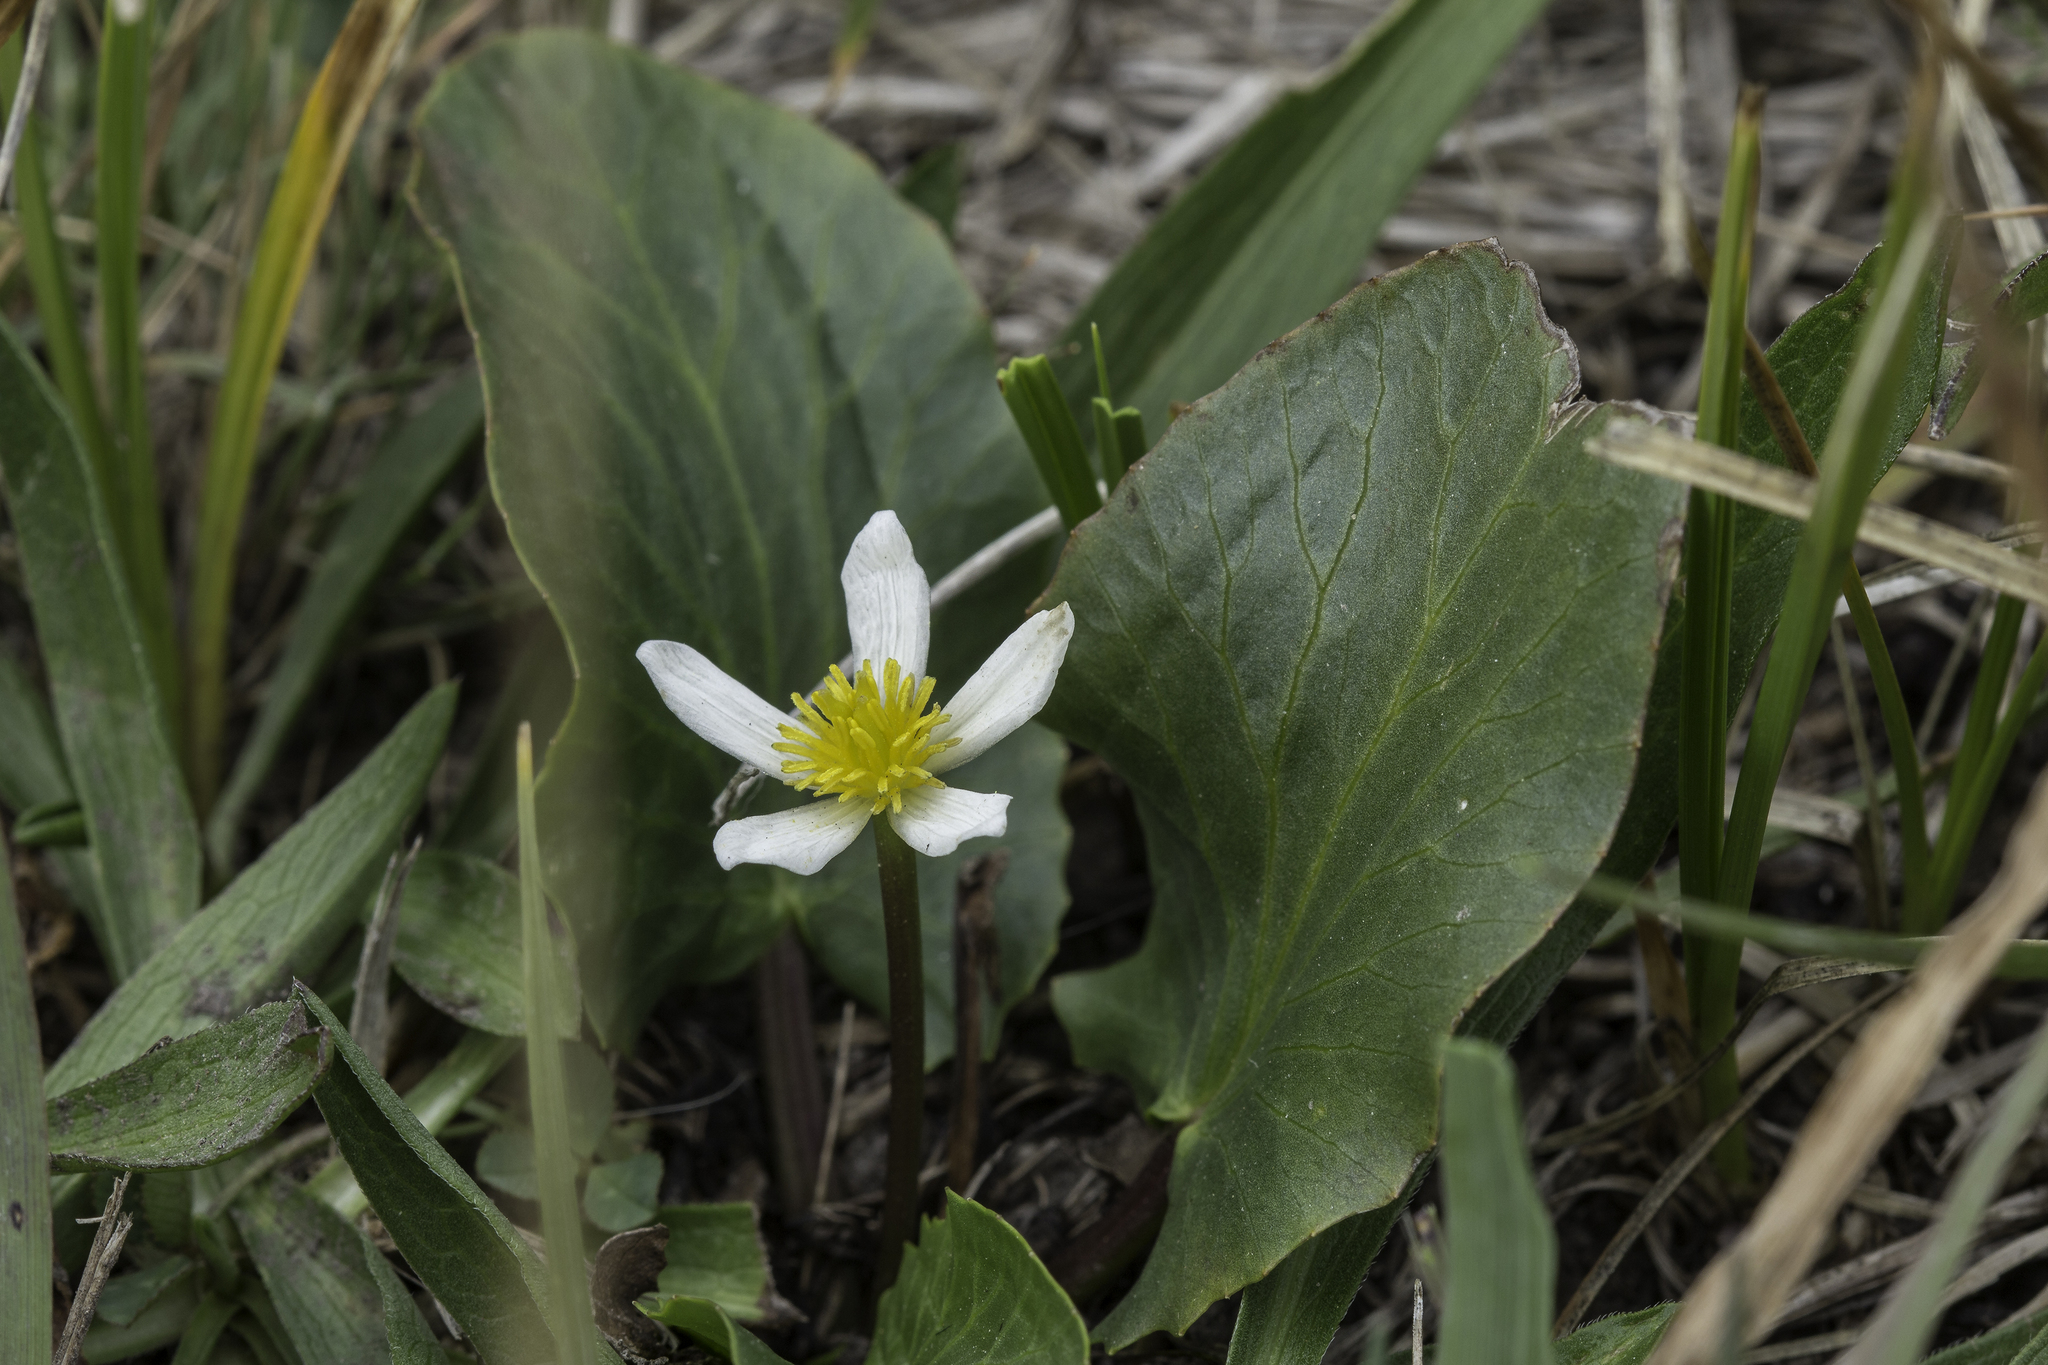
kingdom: Plantae
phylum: Tracheophyta
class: Magnoliopsida
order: Ranunculales
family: Ranunculaceae
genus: Caltha
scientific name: Caltha leptosepala
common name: Elkslip
